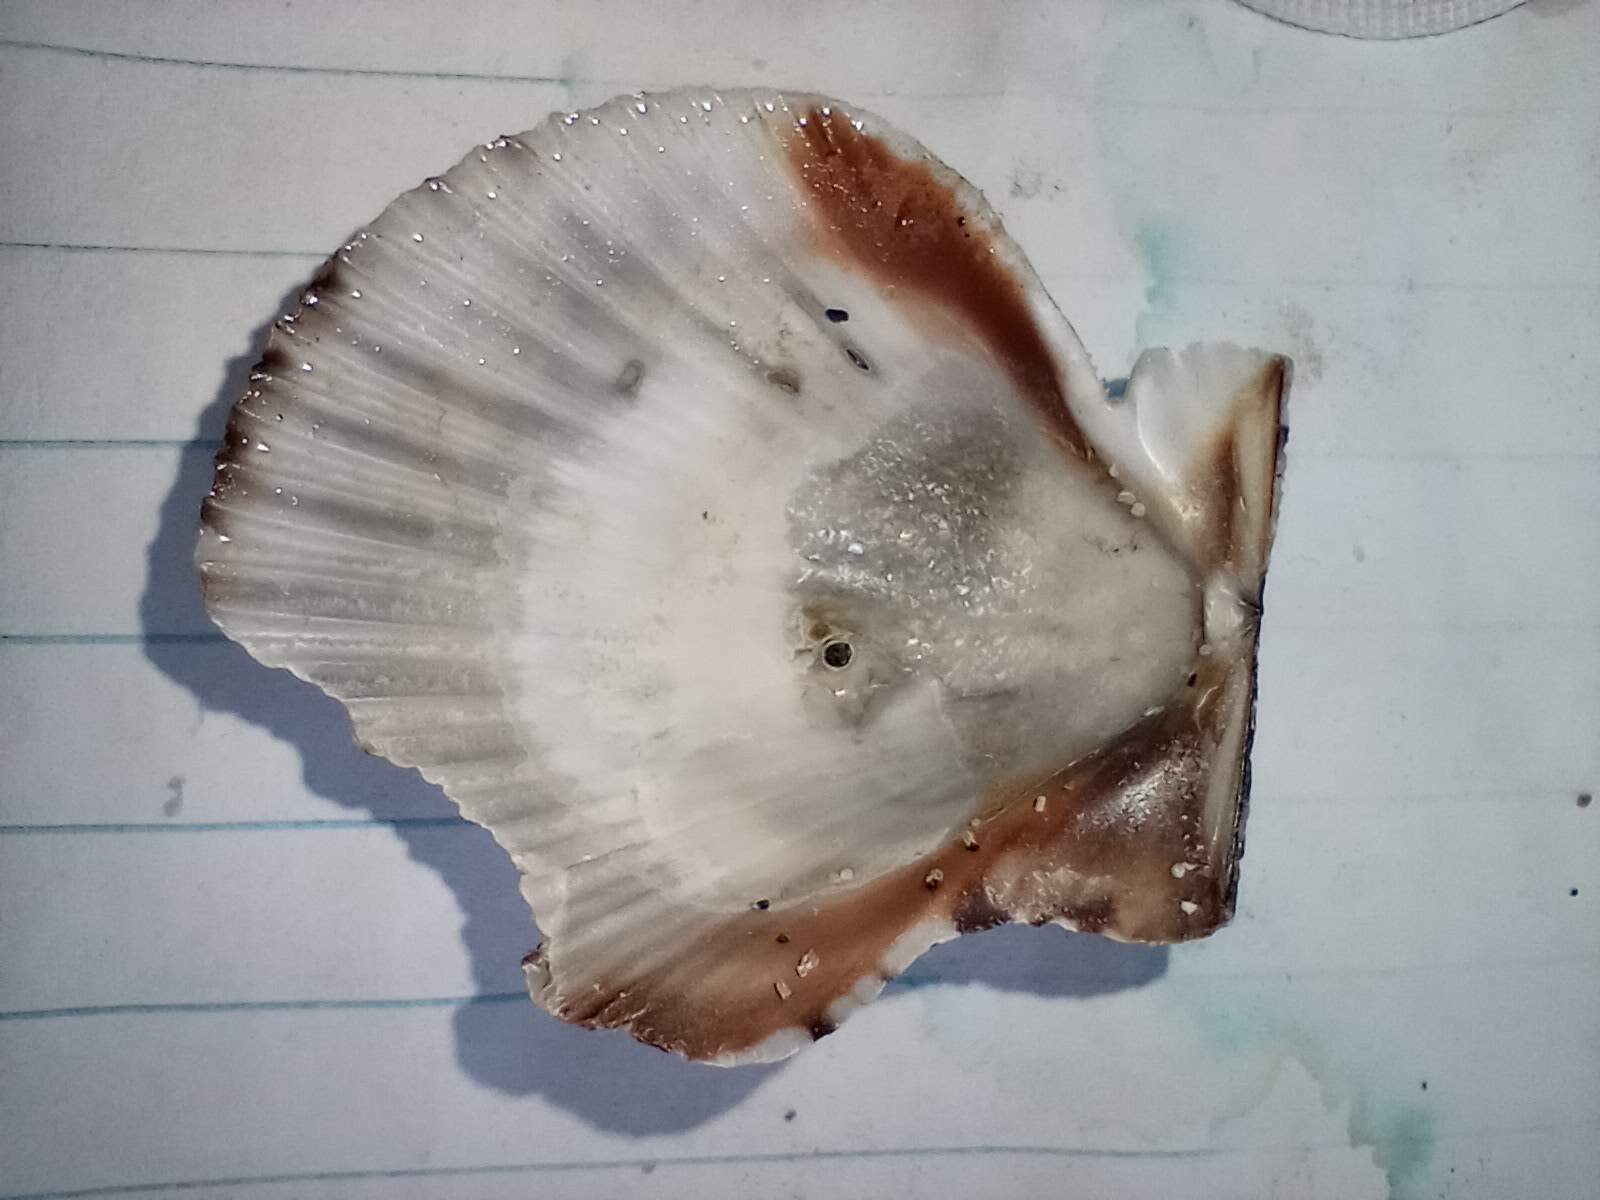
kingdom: Animalia
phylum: Mollusca
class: Bivalvia
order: Pectinida
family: Pectinidae
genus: Argopecten
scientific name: Argopecten ventricosus
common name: Catarina scallop
